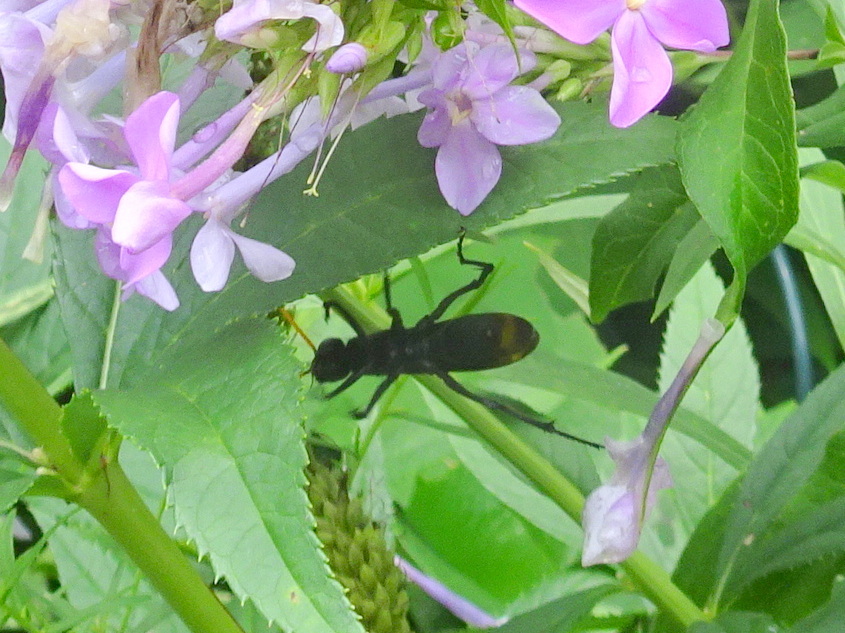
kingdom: Animalia
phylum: Arthropoda
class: Insecta
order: Hymenoptera
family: Pompilidae
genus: Entypus
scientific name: Entypus unifasciatus
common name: Eastern tawny-horned spider wasp
